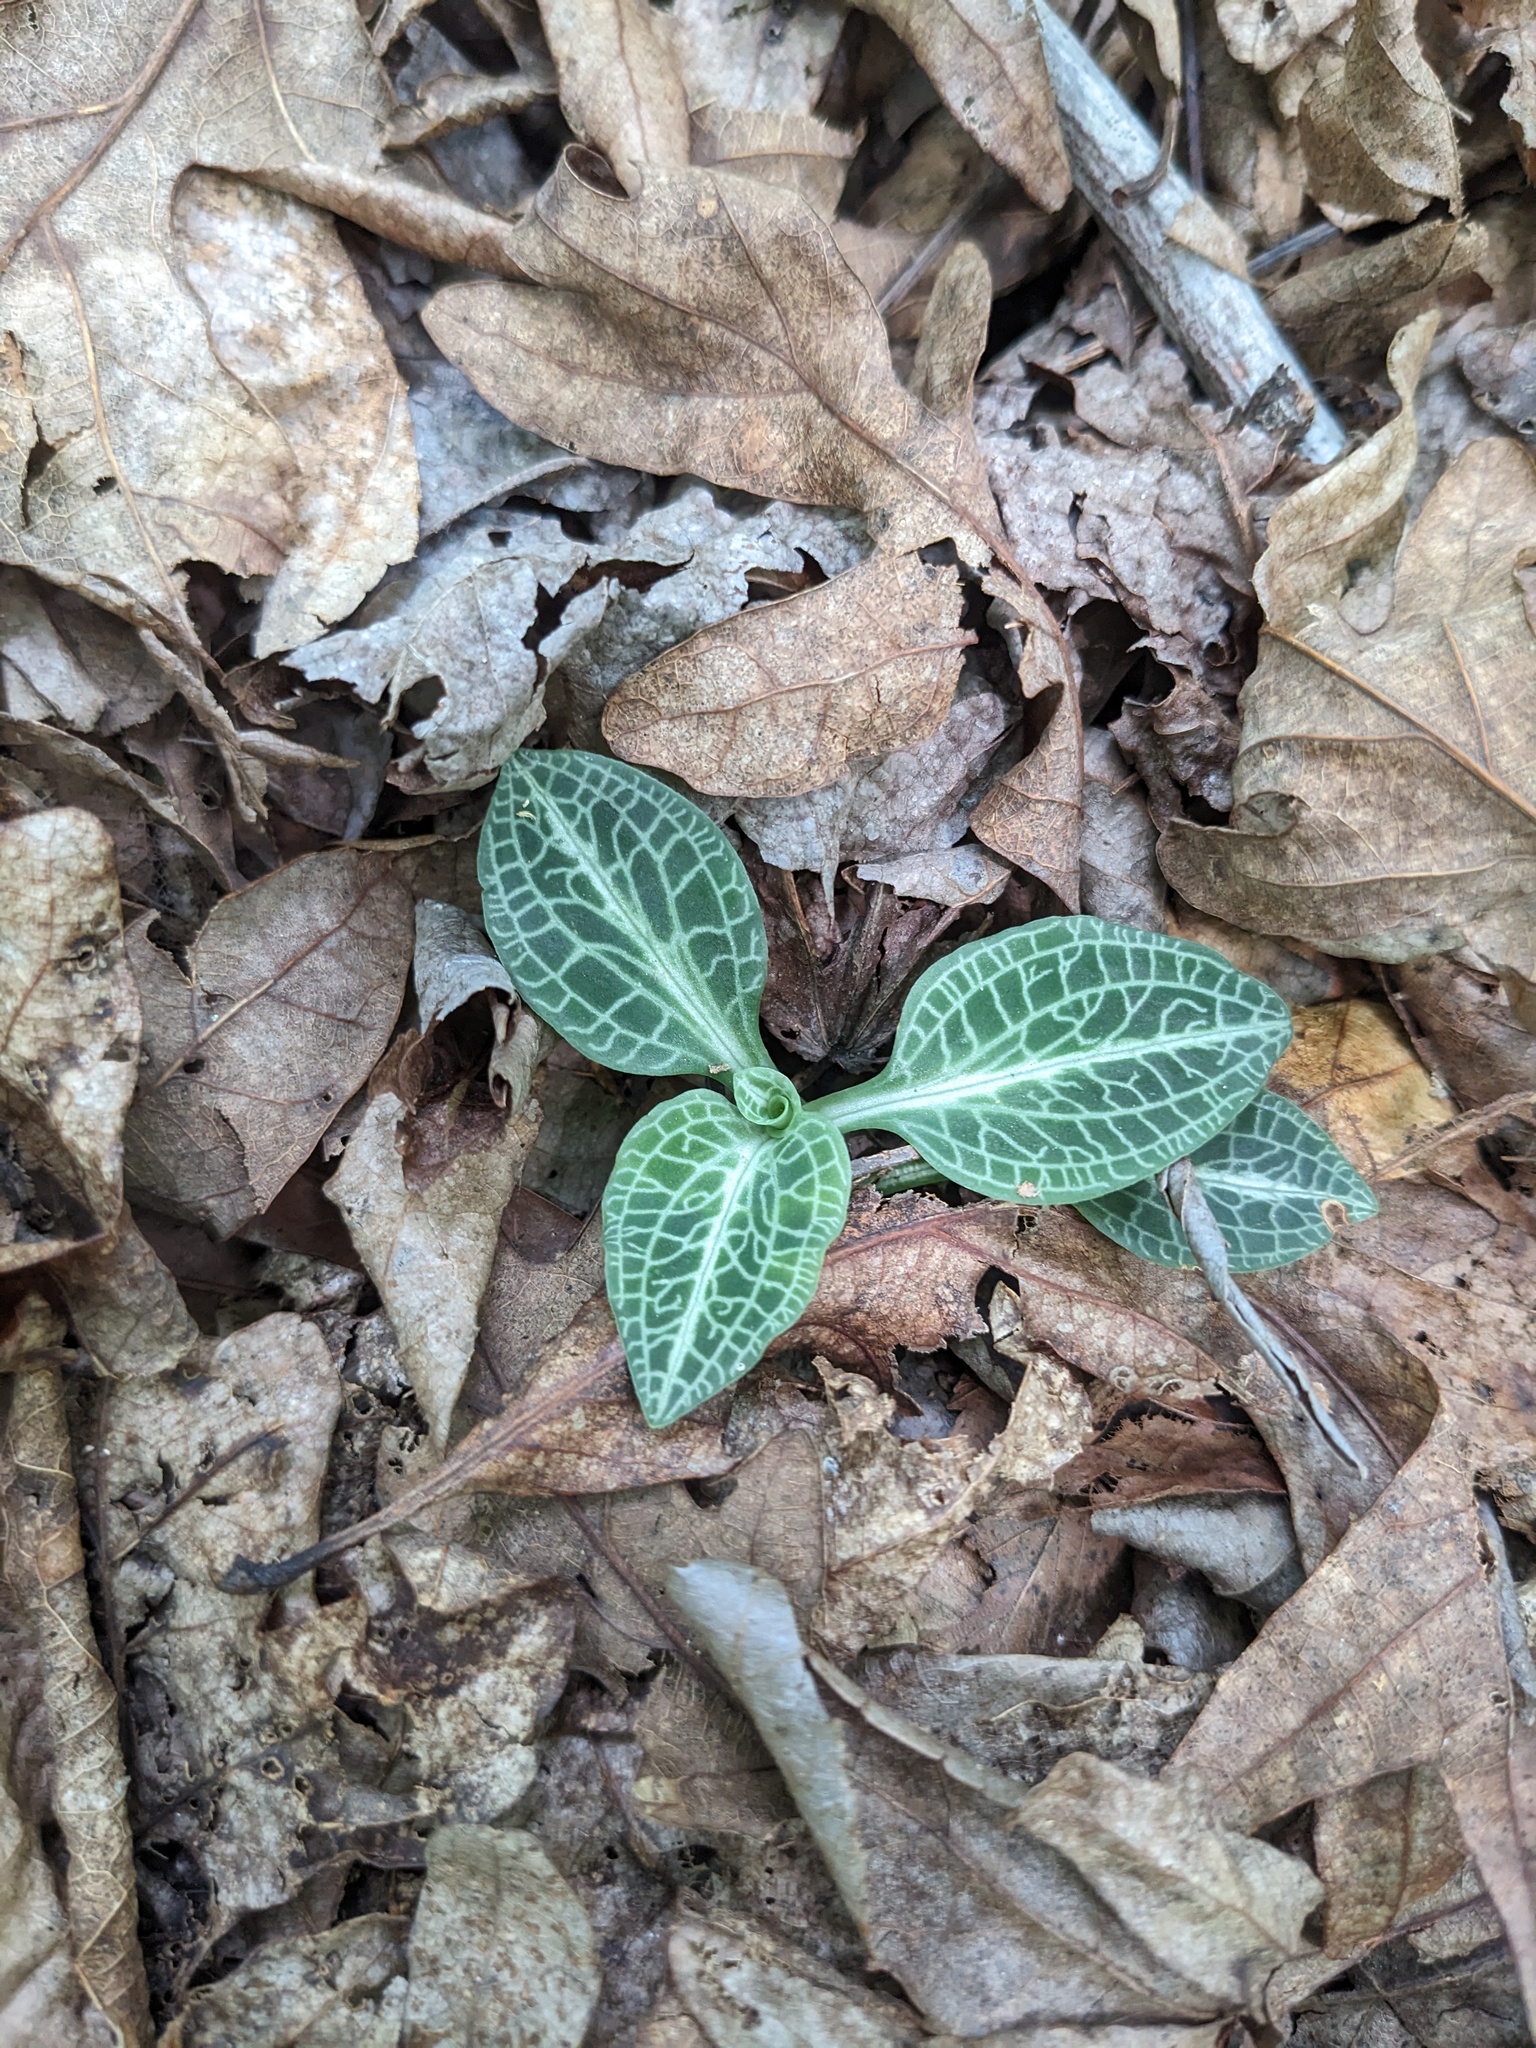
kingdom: Plantae
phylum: Tracheophyta
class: Liliopsida
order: Asparagales
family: Orchidaceae
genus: Goodyera
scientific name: Goodyera pubescens
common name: Downy rattlesnake-plantain
